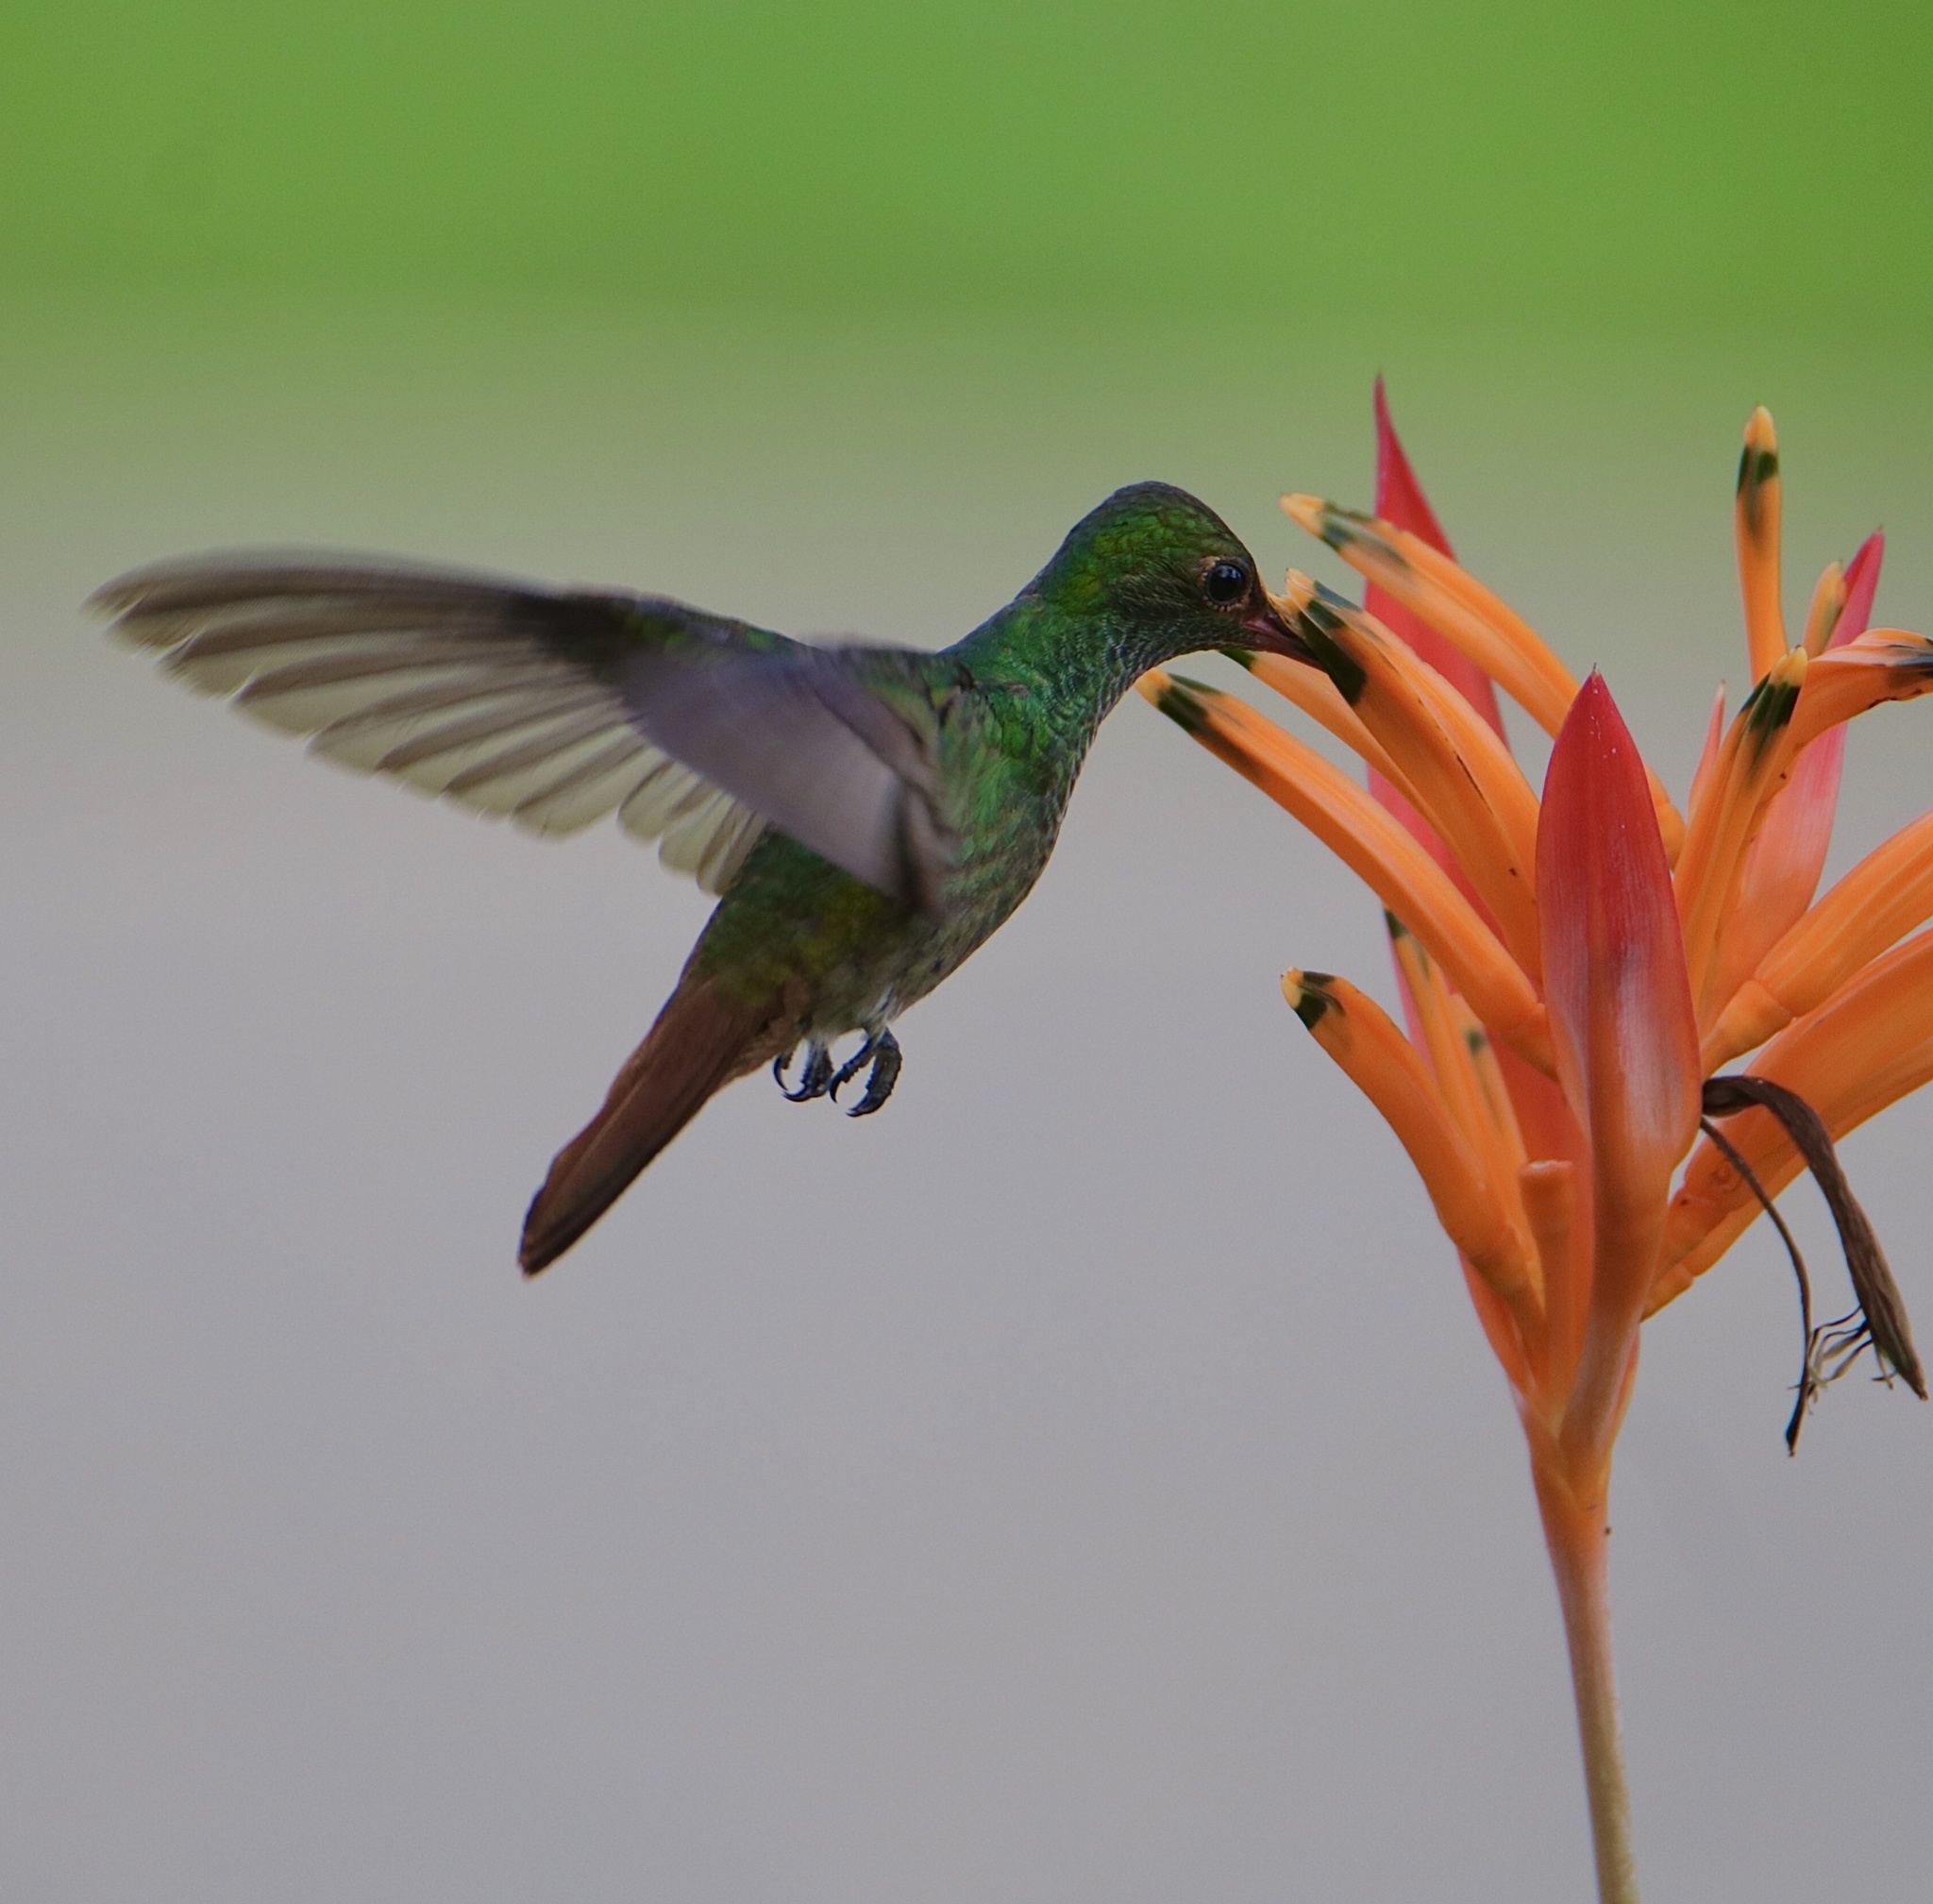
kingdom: Animalia
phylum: Chordata
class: Aves
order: Apodiformes
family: Trochilidae
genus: Amazilia
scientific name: Amazilia tzacatl
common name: Rufous-tailed hummingbird
